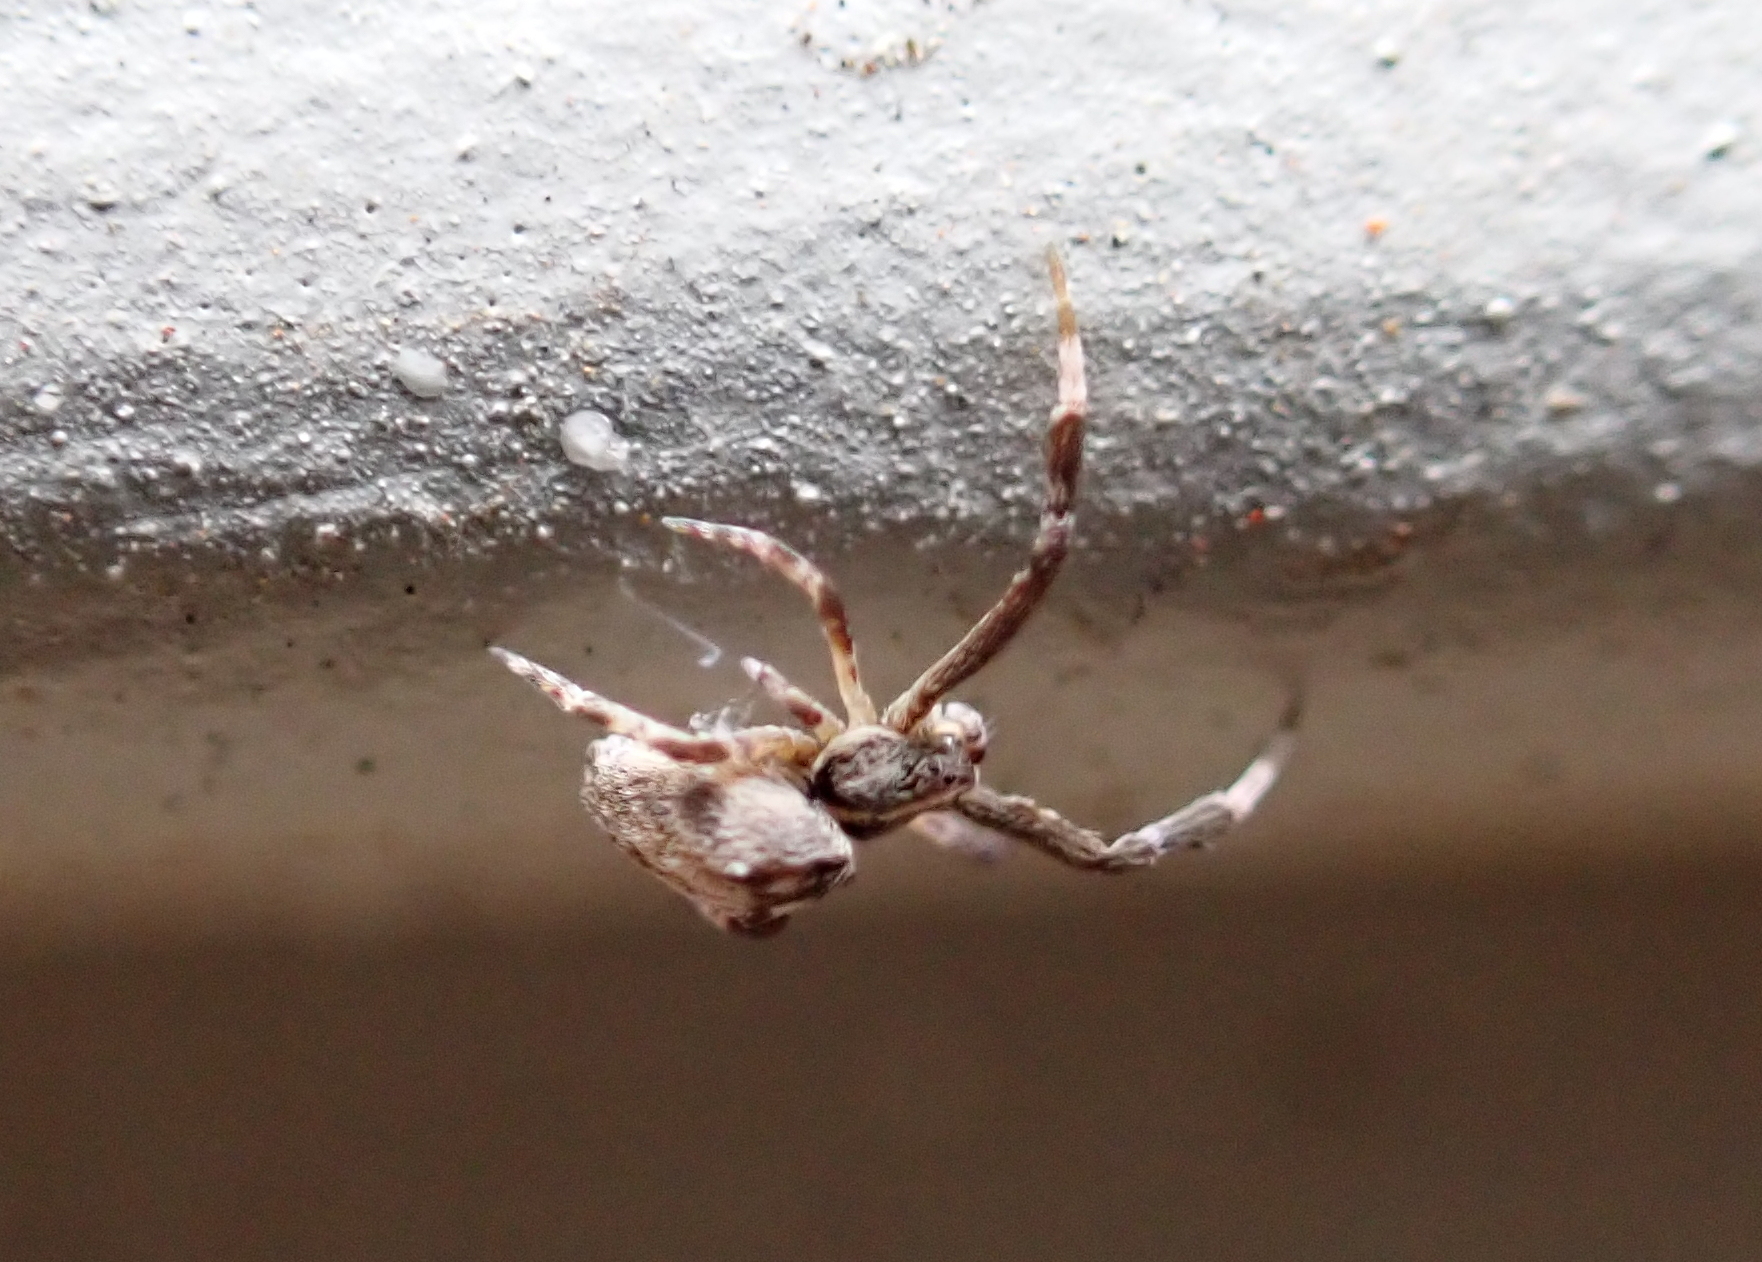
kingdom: Animalia
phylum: Arthropoda
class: Arachnida
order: Araneae
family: Uloboridae
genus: Uloborus
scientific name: Uloborus glomosus
